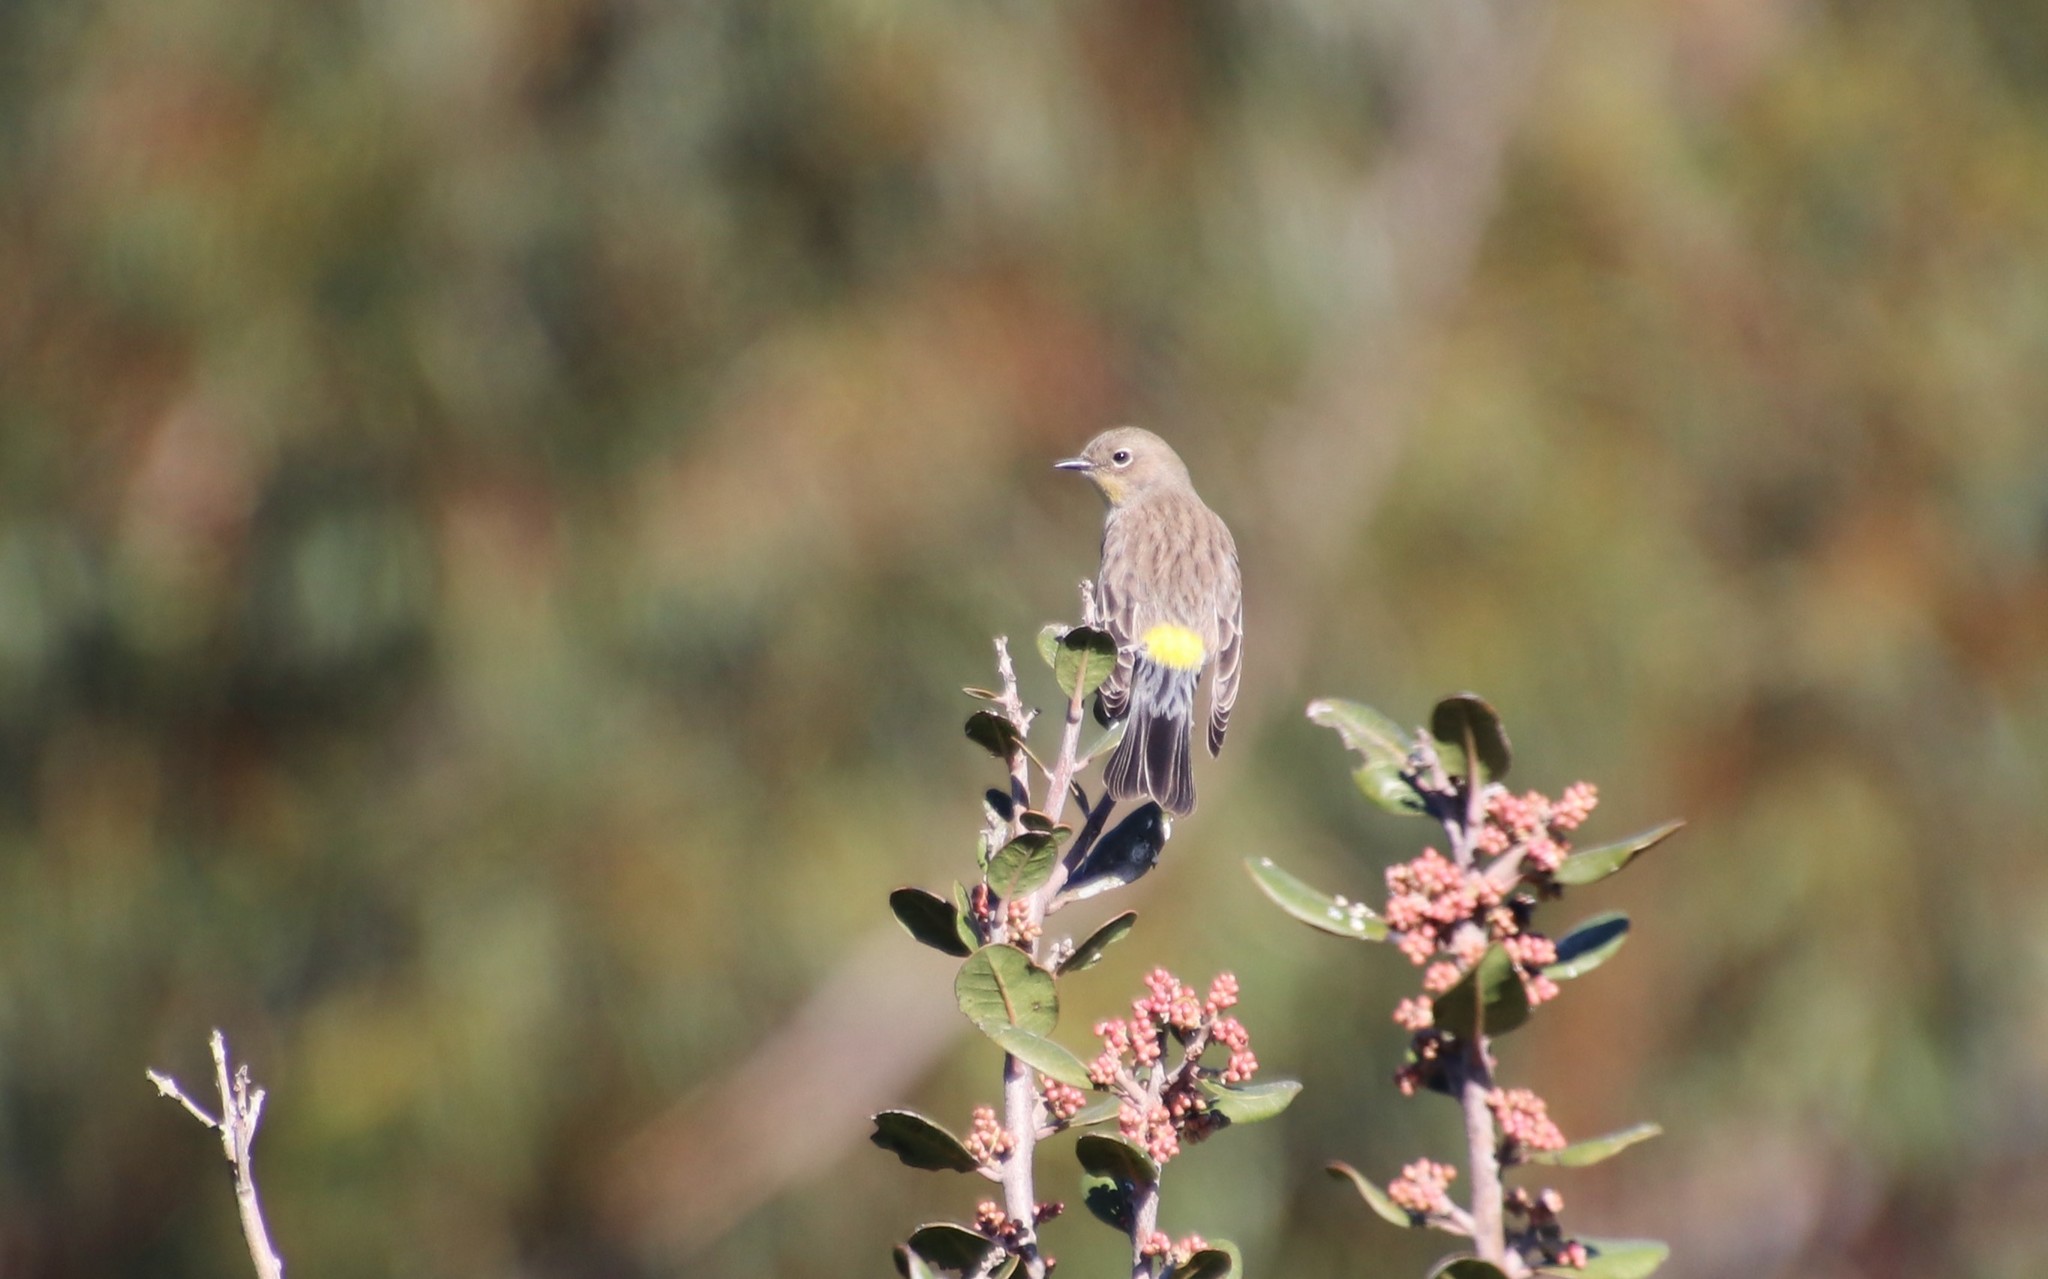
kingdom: Animalia
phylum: Chordata
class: Aves
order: Passeriformes
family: Parulidae
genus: Setophaga
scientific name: Setophaga coronata
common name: Myrtle warbler
